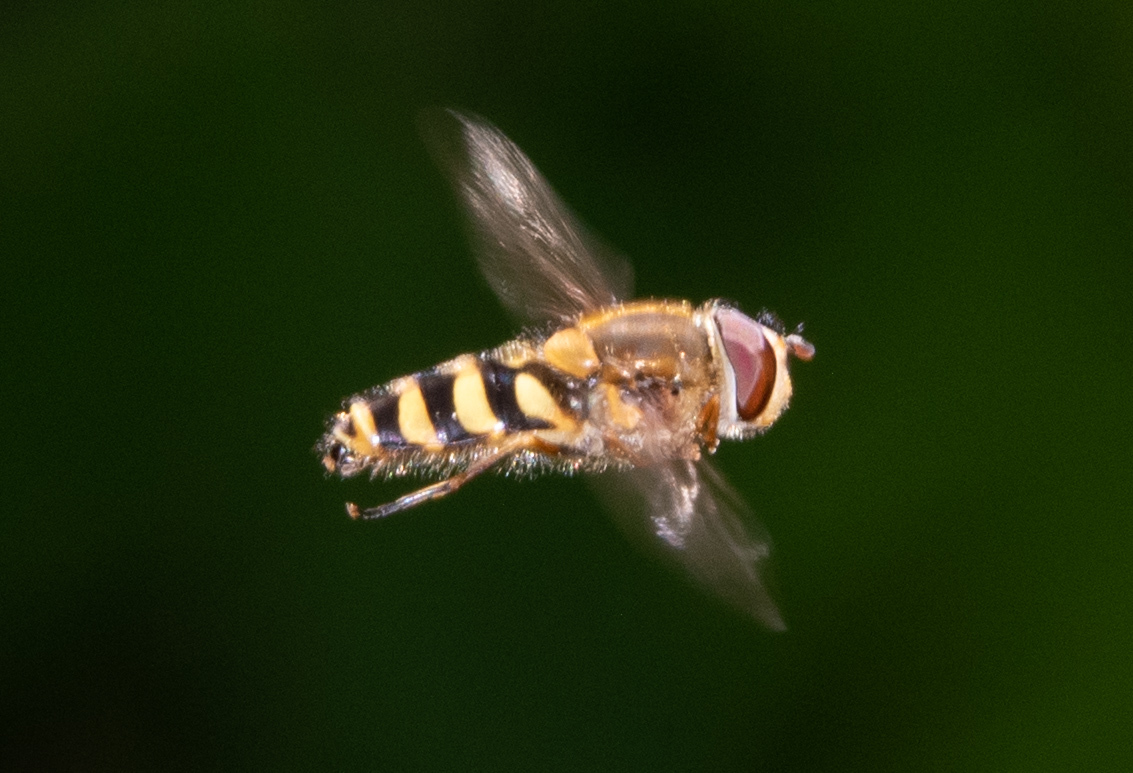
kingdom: Animalia
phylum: Arthropoda
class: Insecta
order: Diptera
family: Syrphidae
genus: Syrphus
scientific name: Syrphus
